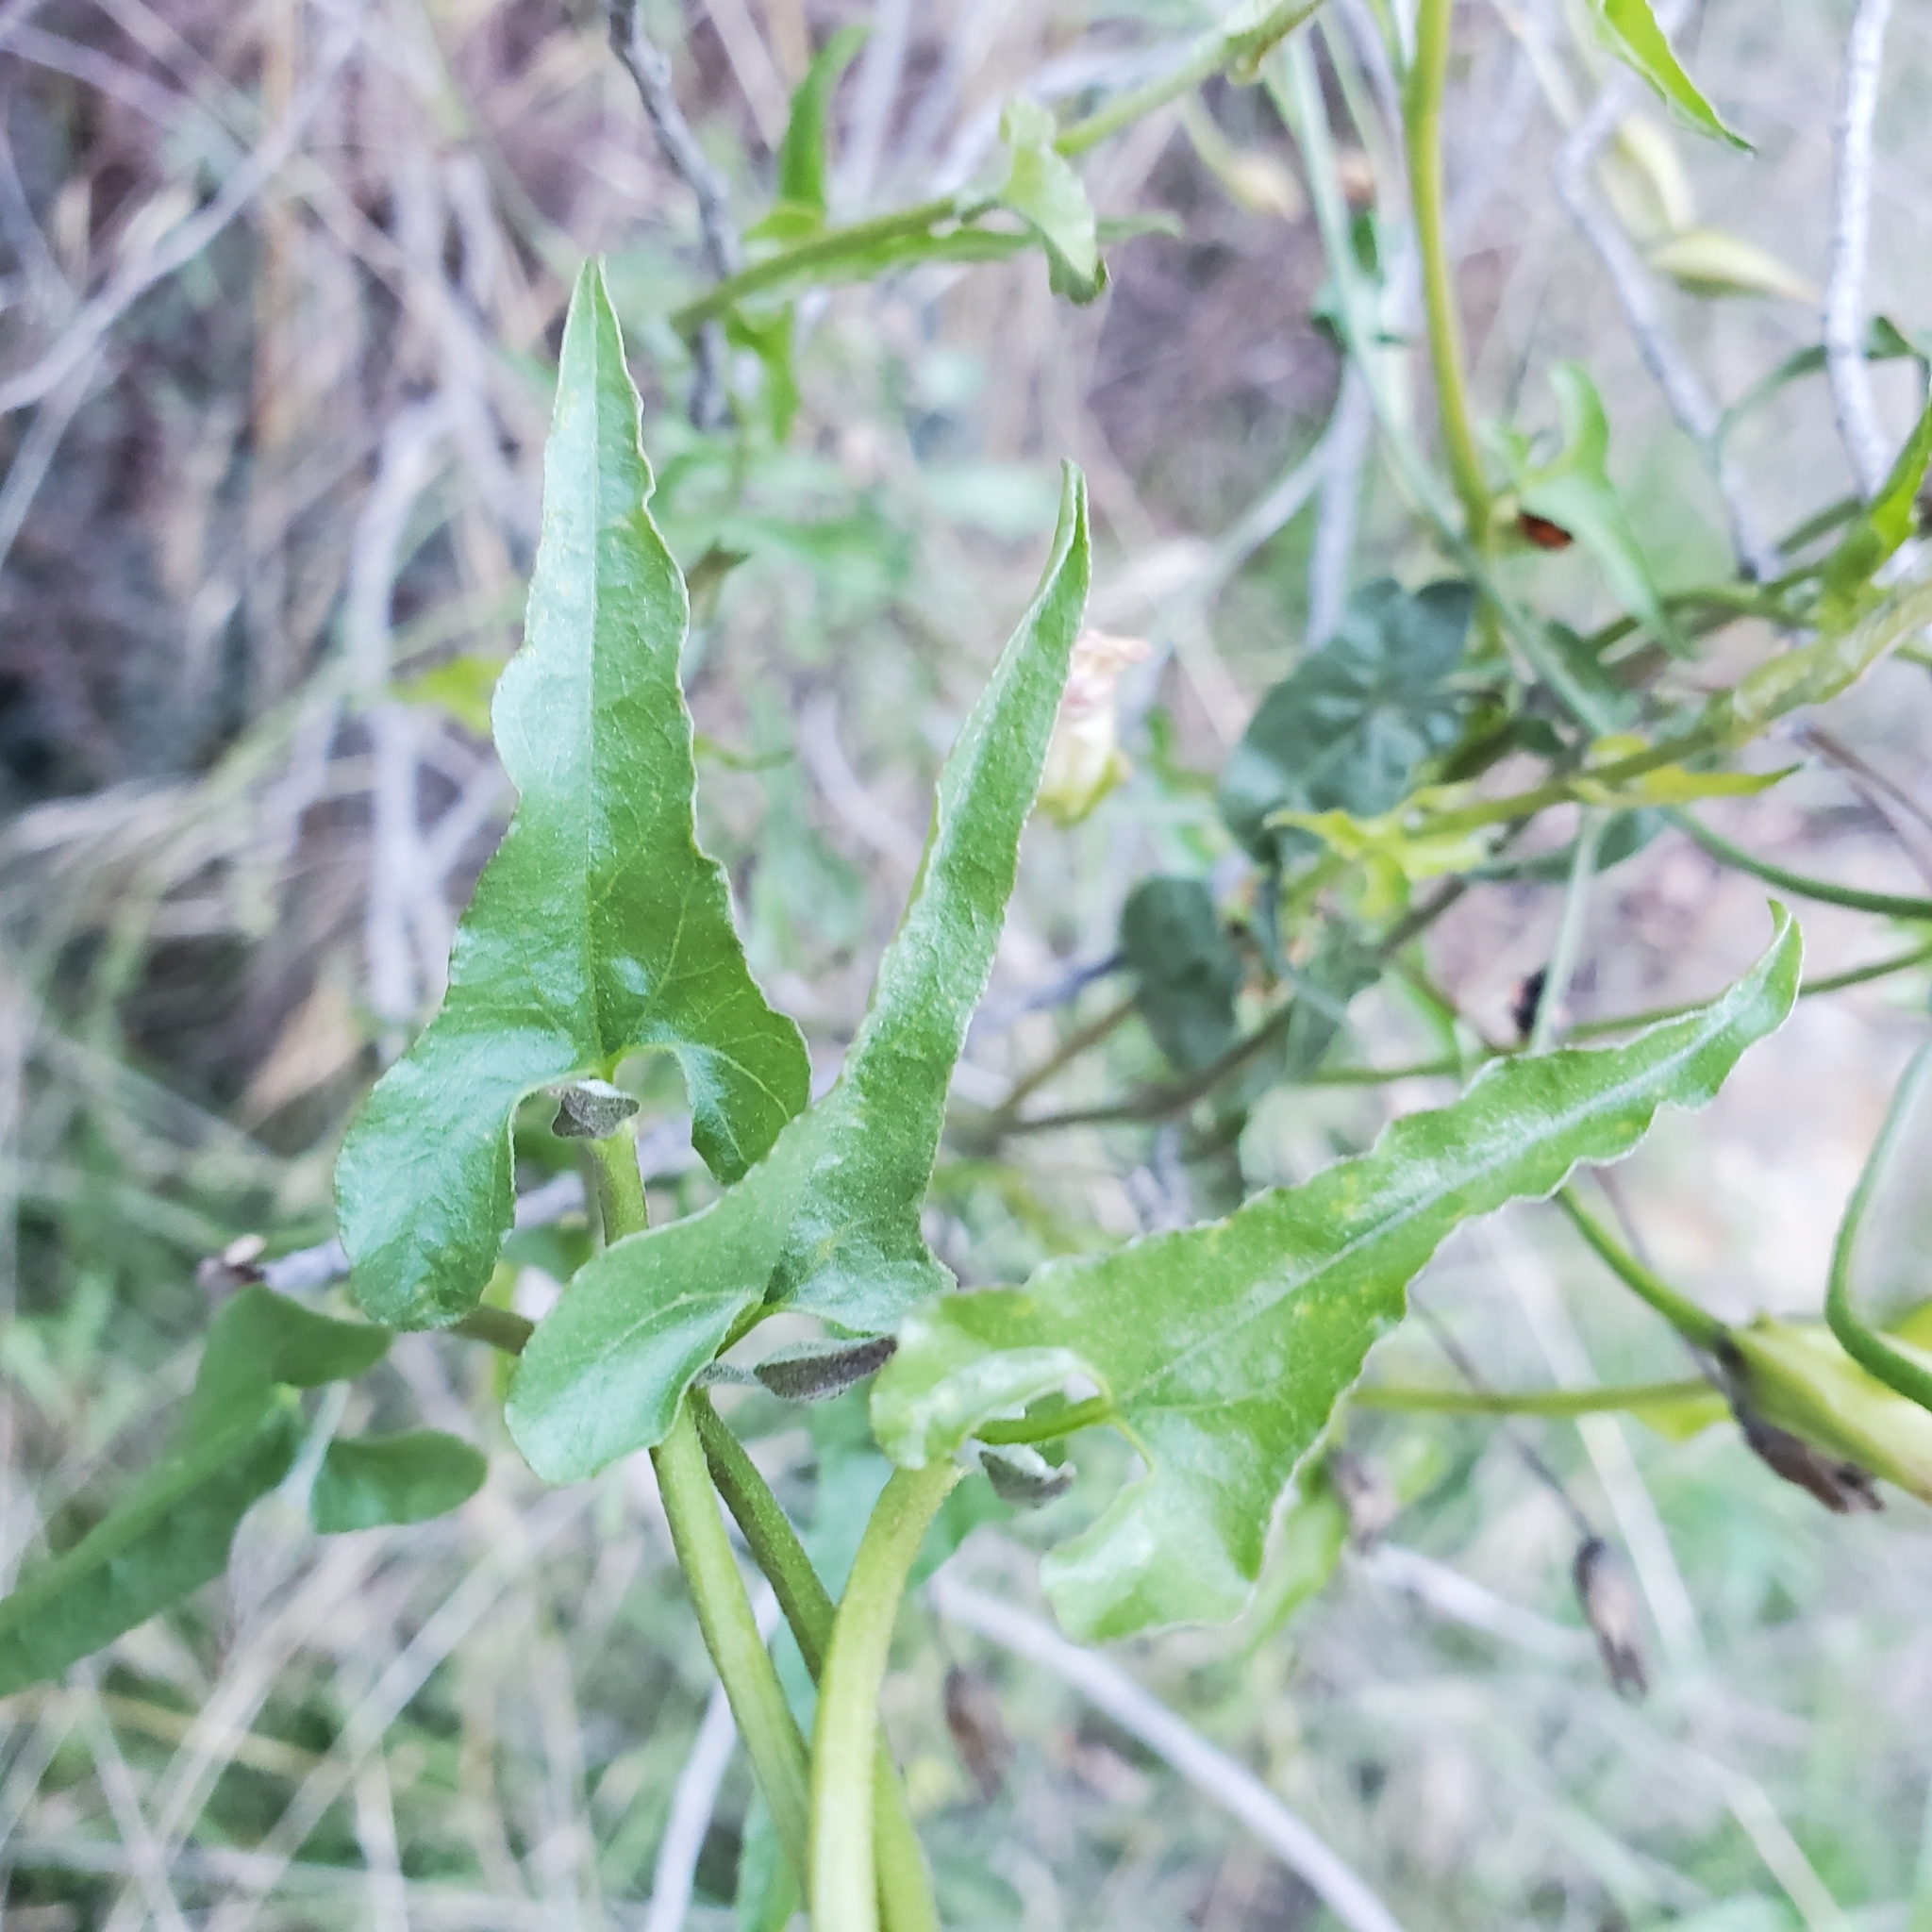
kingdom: Plantae
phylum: Tracheophyta
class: Magnoliopsida
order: Solanales
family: Convolvulaceae
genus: Calystegia
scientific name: Calystegia macrostegia
